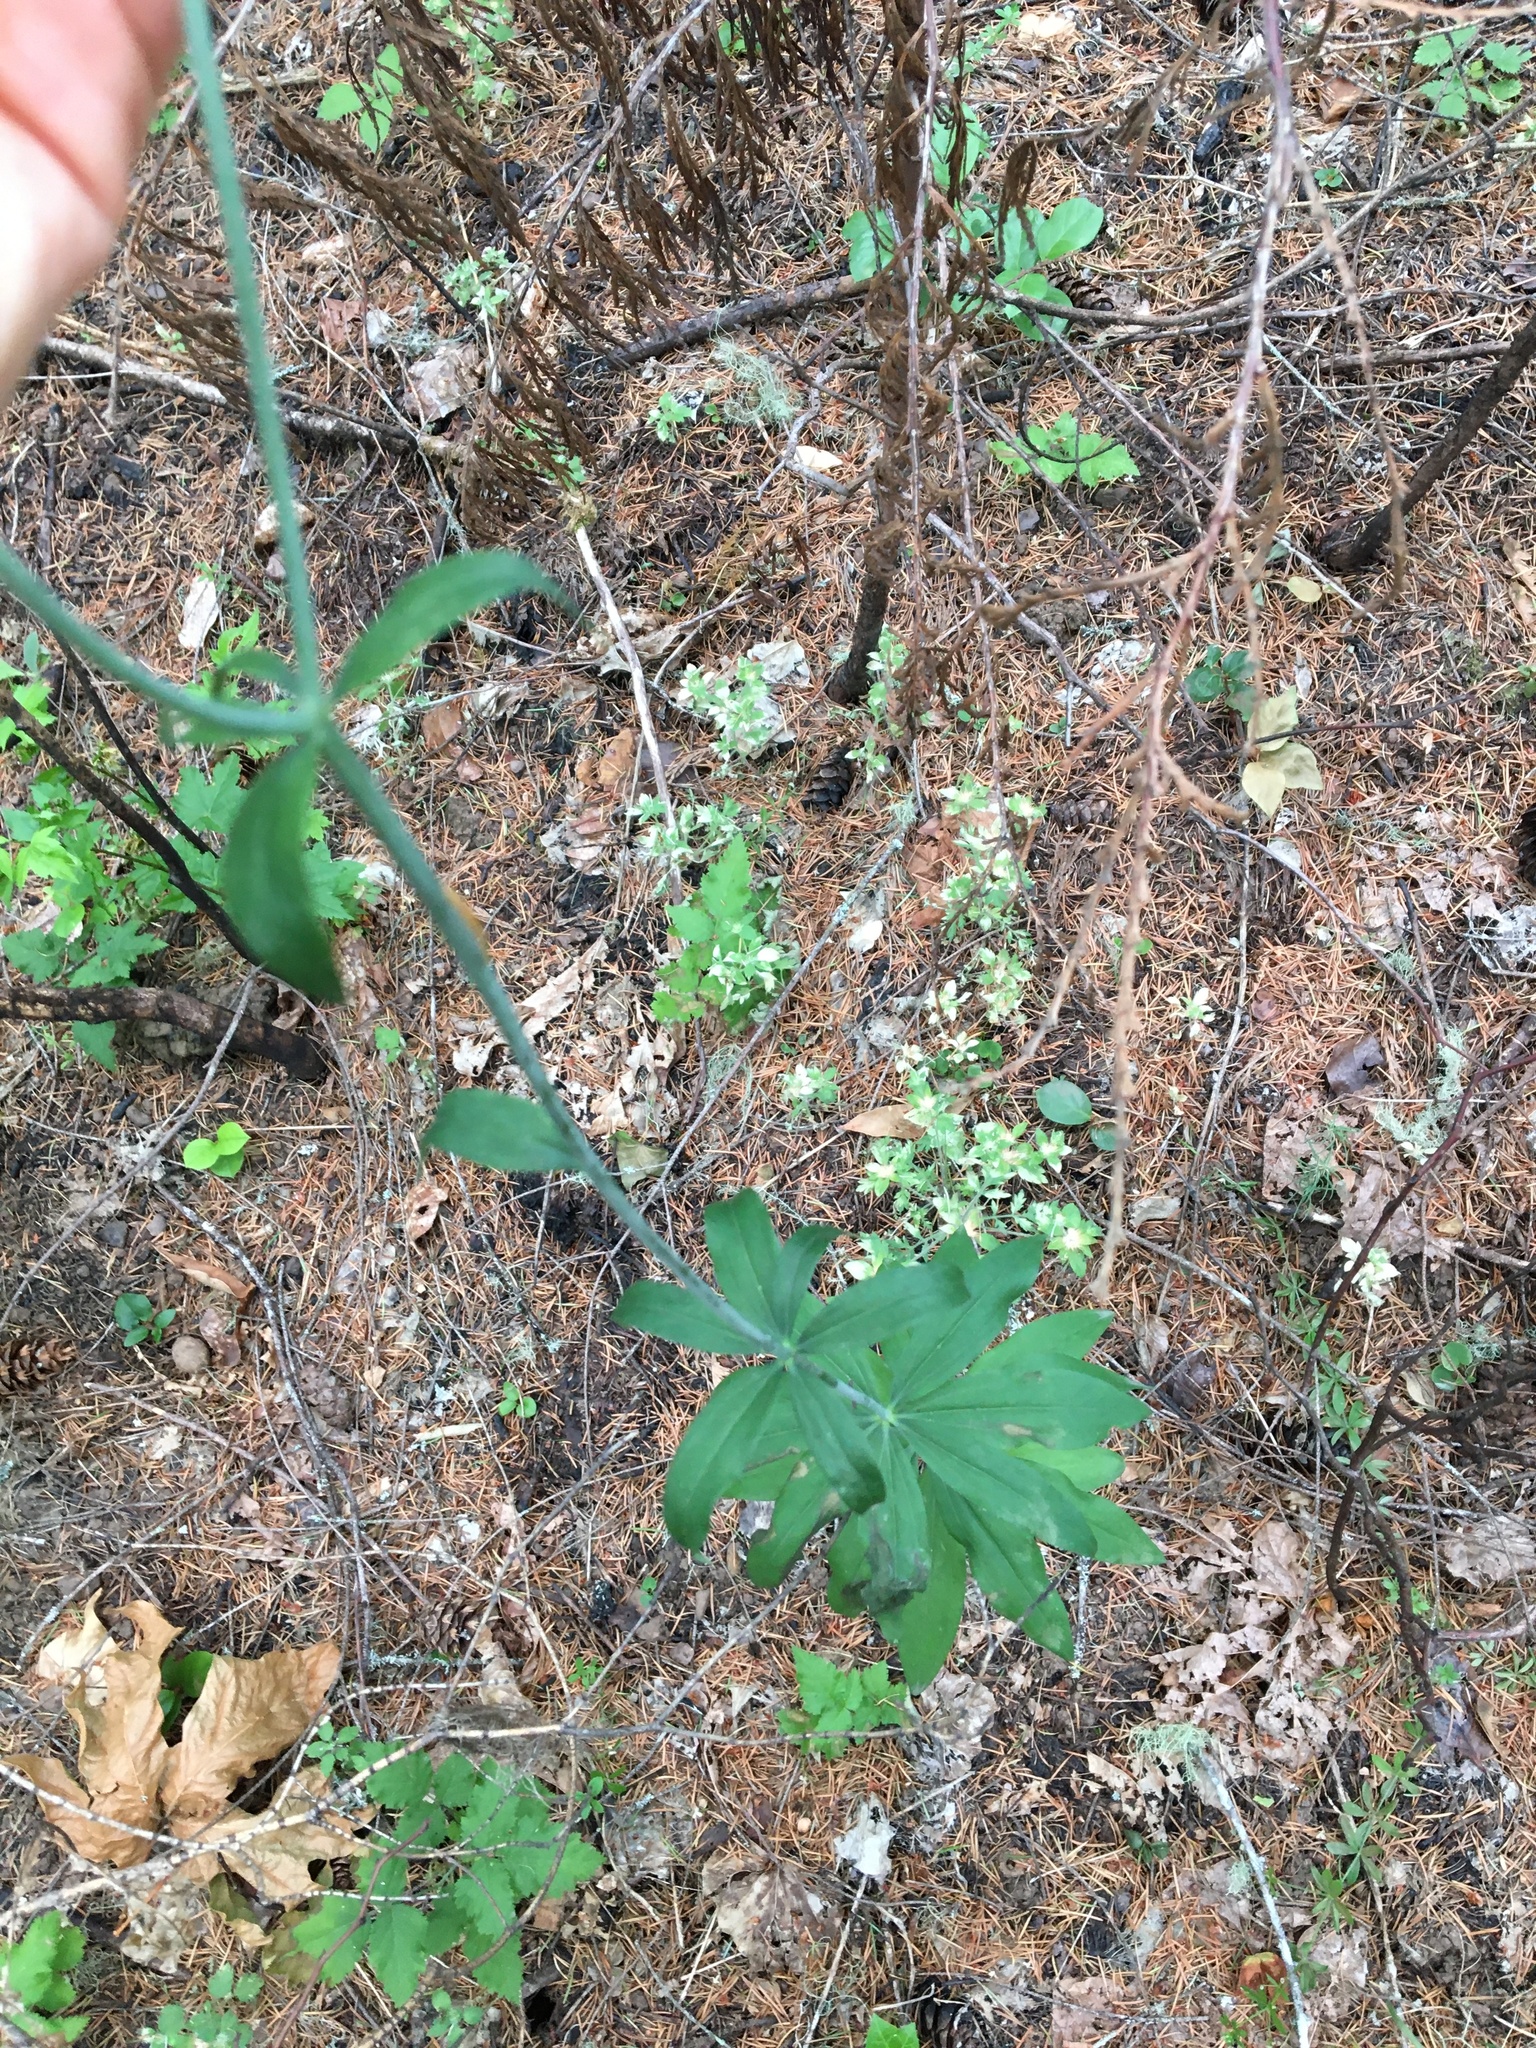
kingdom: Plantae
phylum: Tracheophyta
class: Liliopsida
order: Liliales
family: Liliaceae
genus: Lilium
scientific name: Lilium columbianum
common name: Columbia lily
